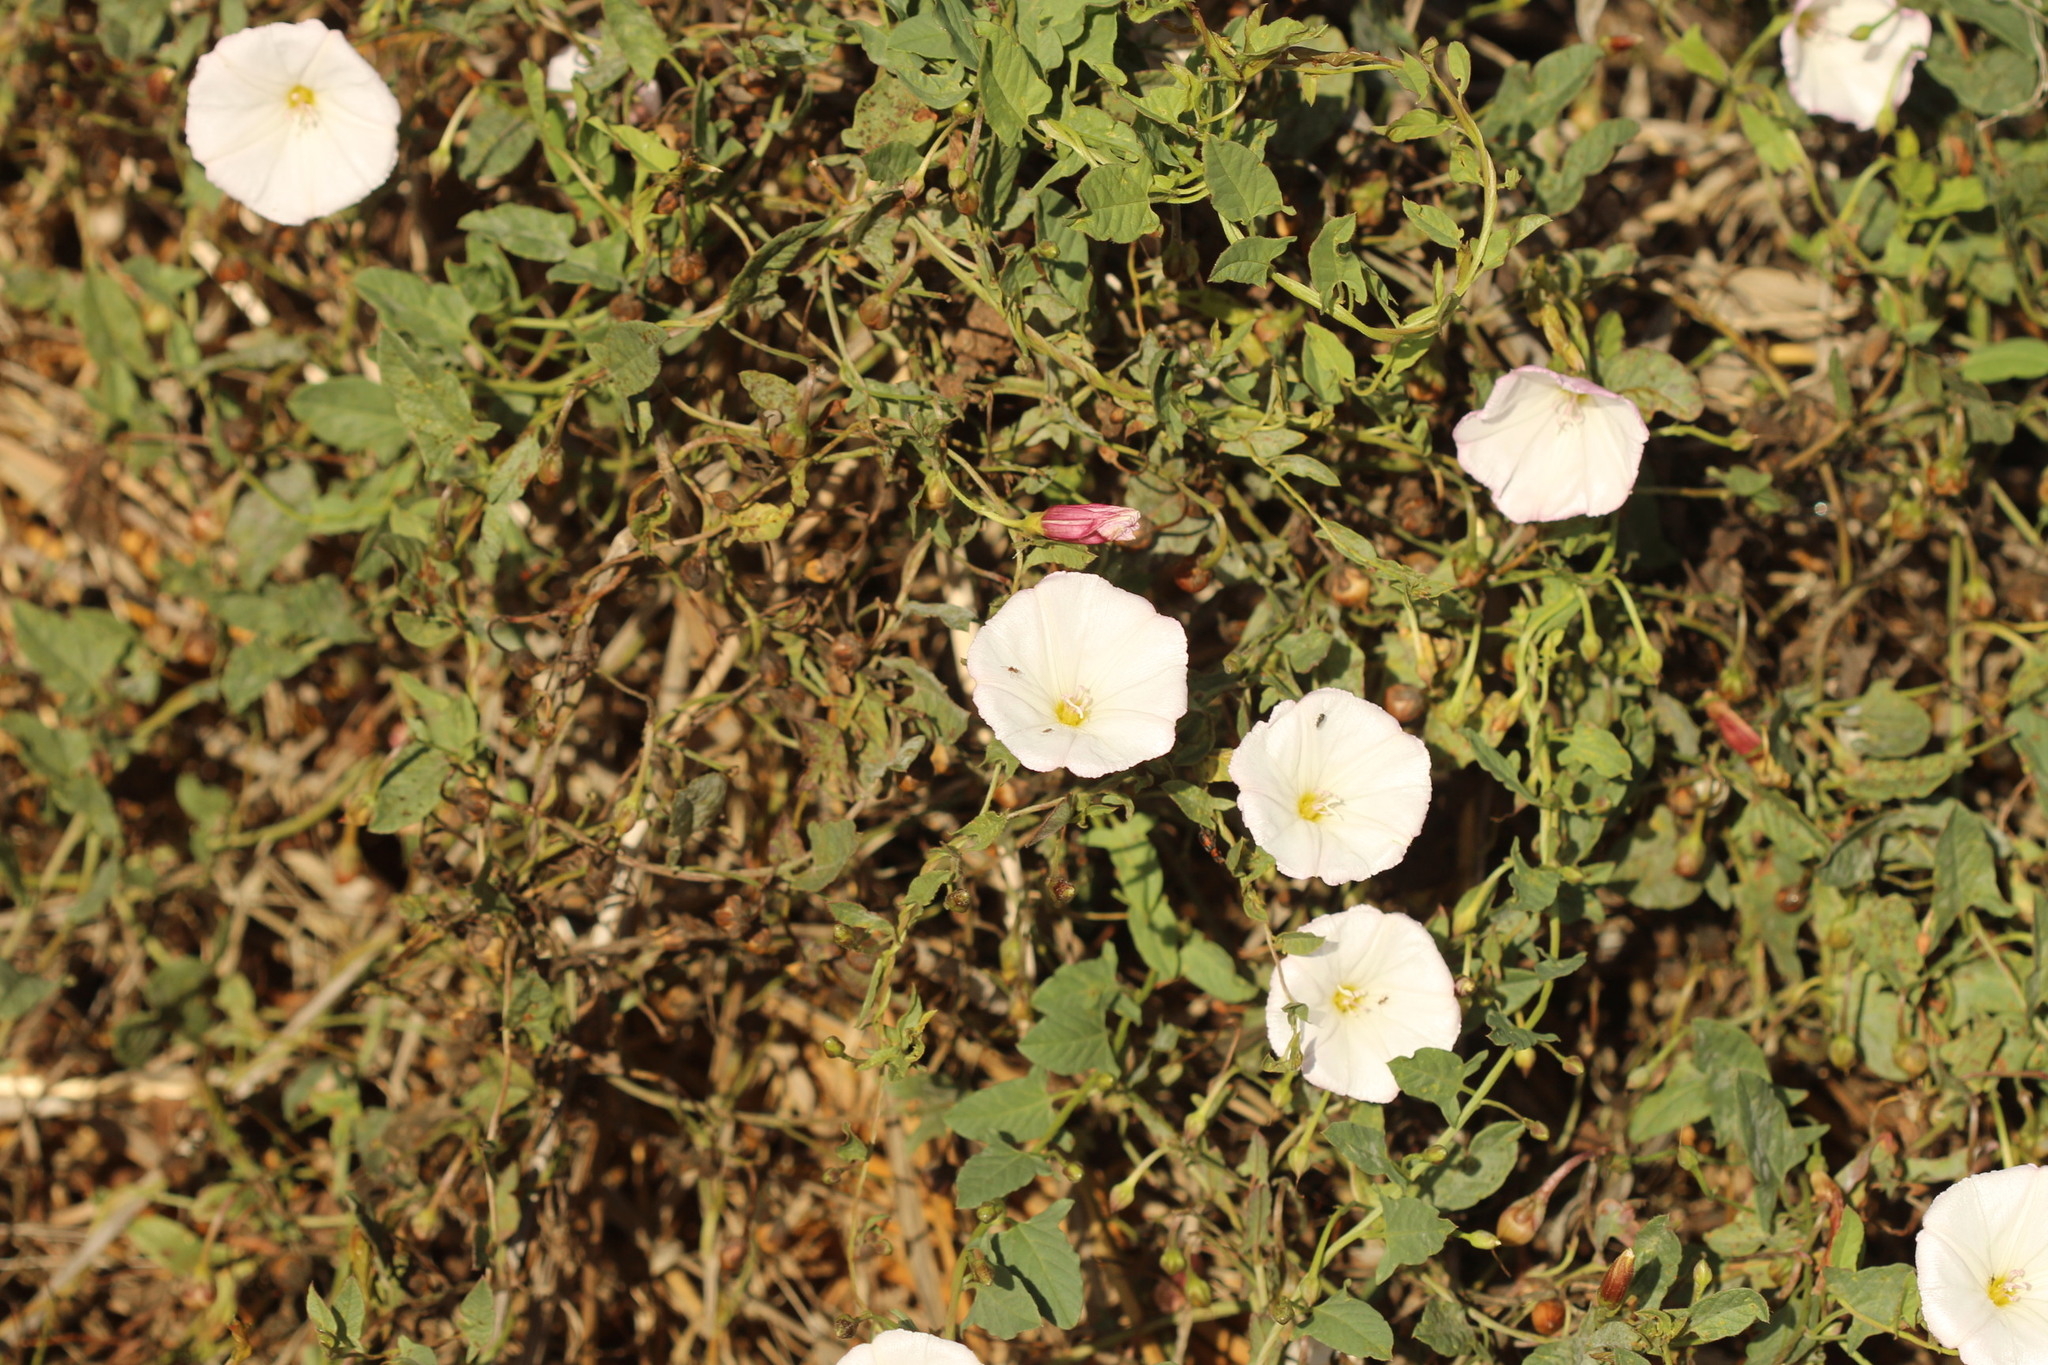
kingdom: Plantae
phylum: Tracheophyta
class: Magnoliopsida
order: Solanales
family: Convolvulaceae
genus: Convolvulus
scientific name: Convolvulus arvensis
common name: Field bindweed
